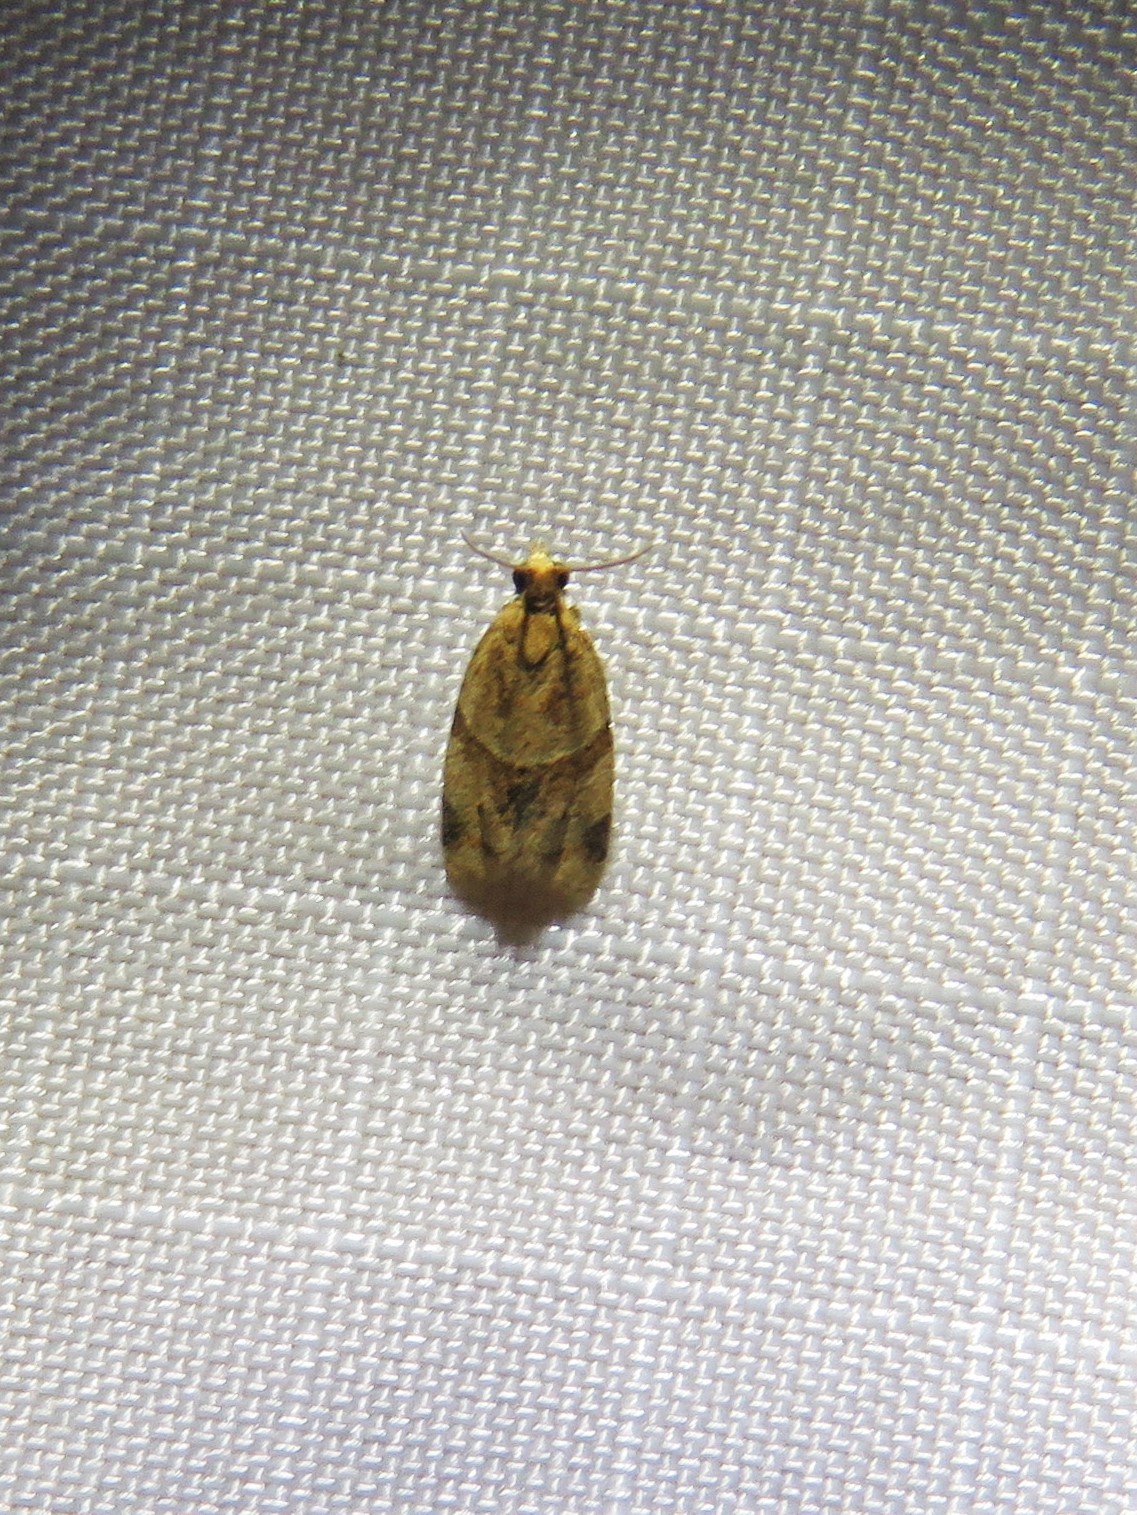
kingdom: Animalia
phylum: Arthropoda
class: Insecta
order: Lepidoptera
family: Tortricidae
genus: Clepsis
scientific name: Clepsis peritana
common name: Garden tortrix
